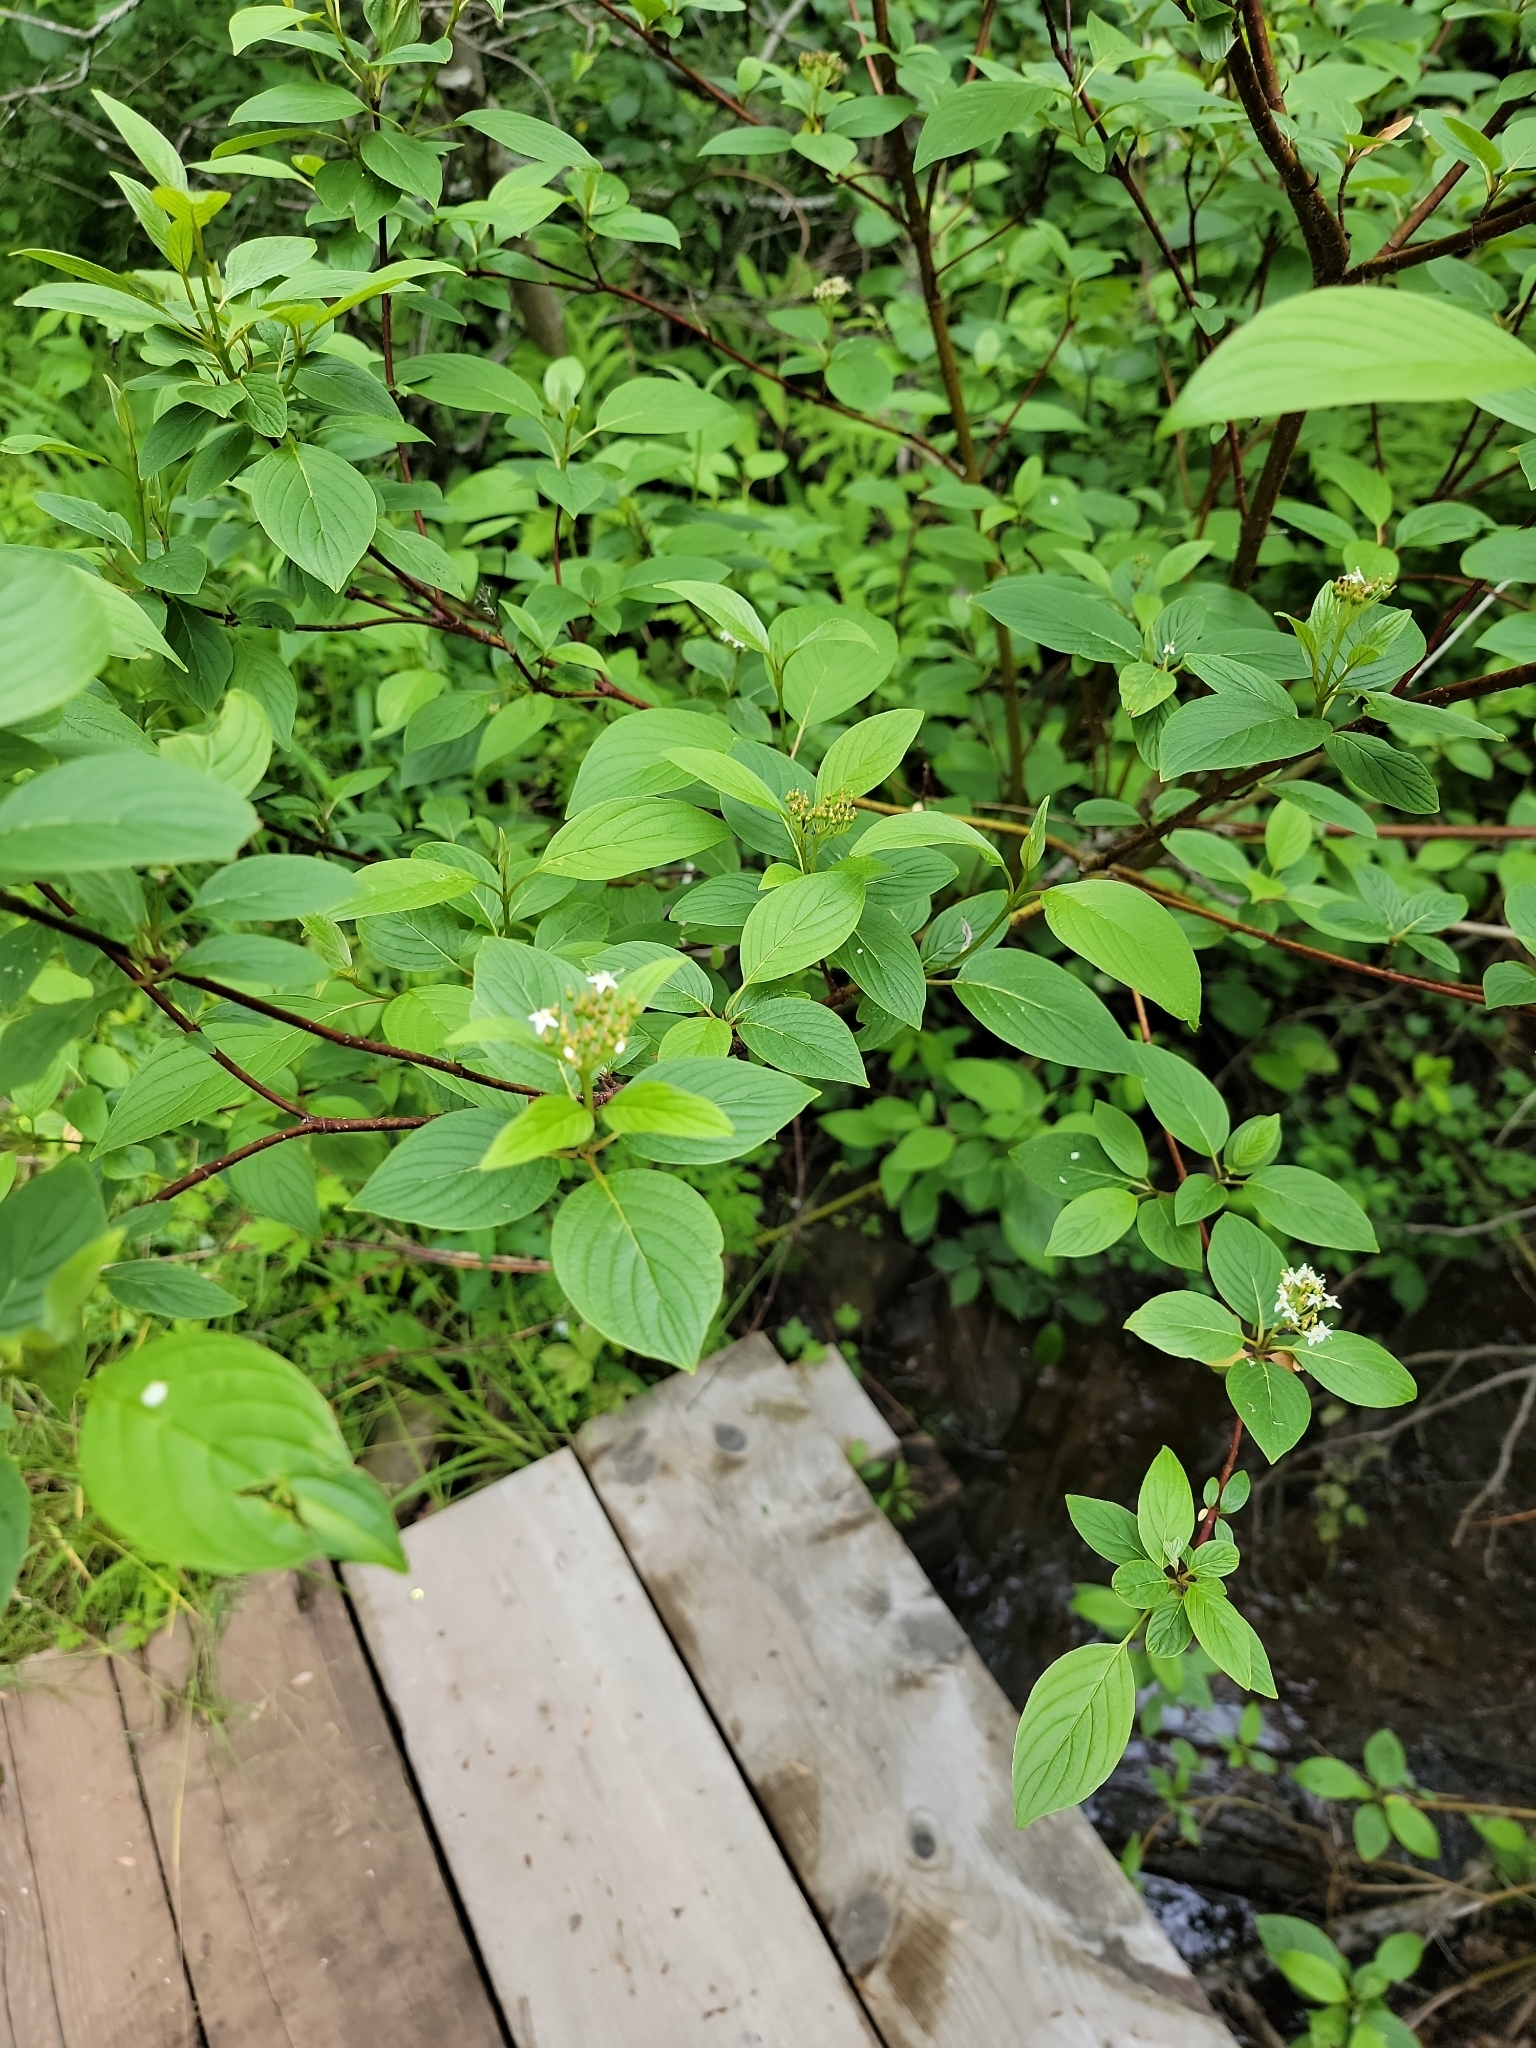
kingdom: Plantae
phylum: Tracheophyta
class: Magnoliopsida
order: Cornales
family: Cornaceae
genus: Cornus
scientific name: Cornus sericea
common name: Red-osier dogwood
